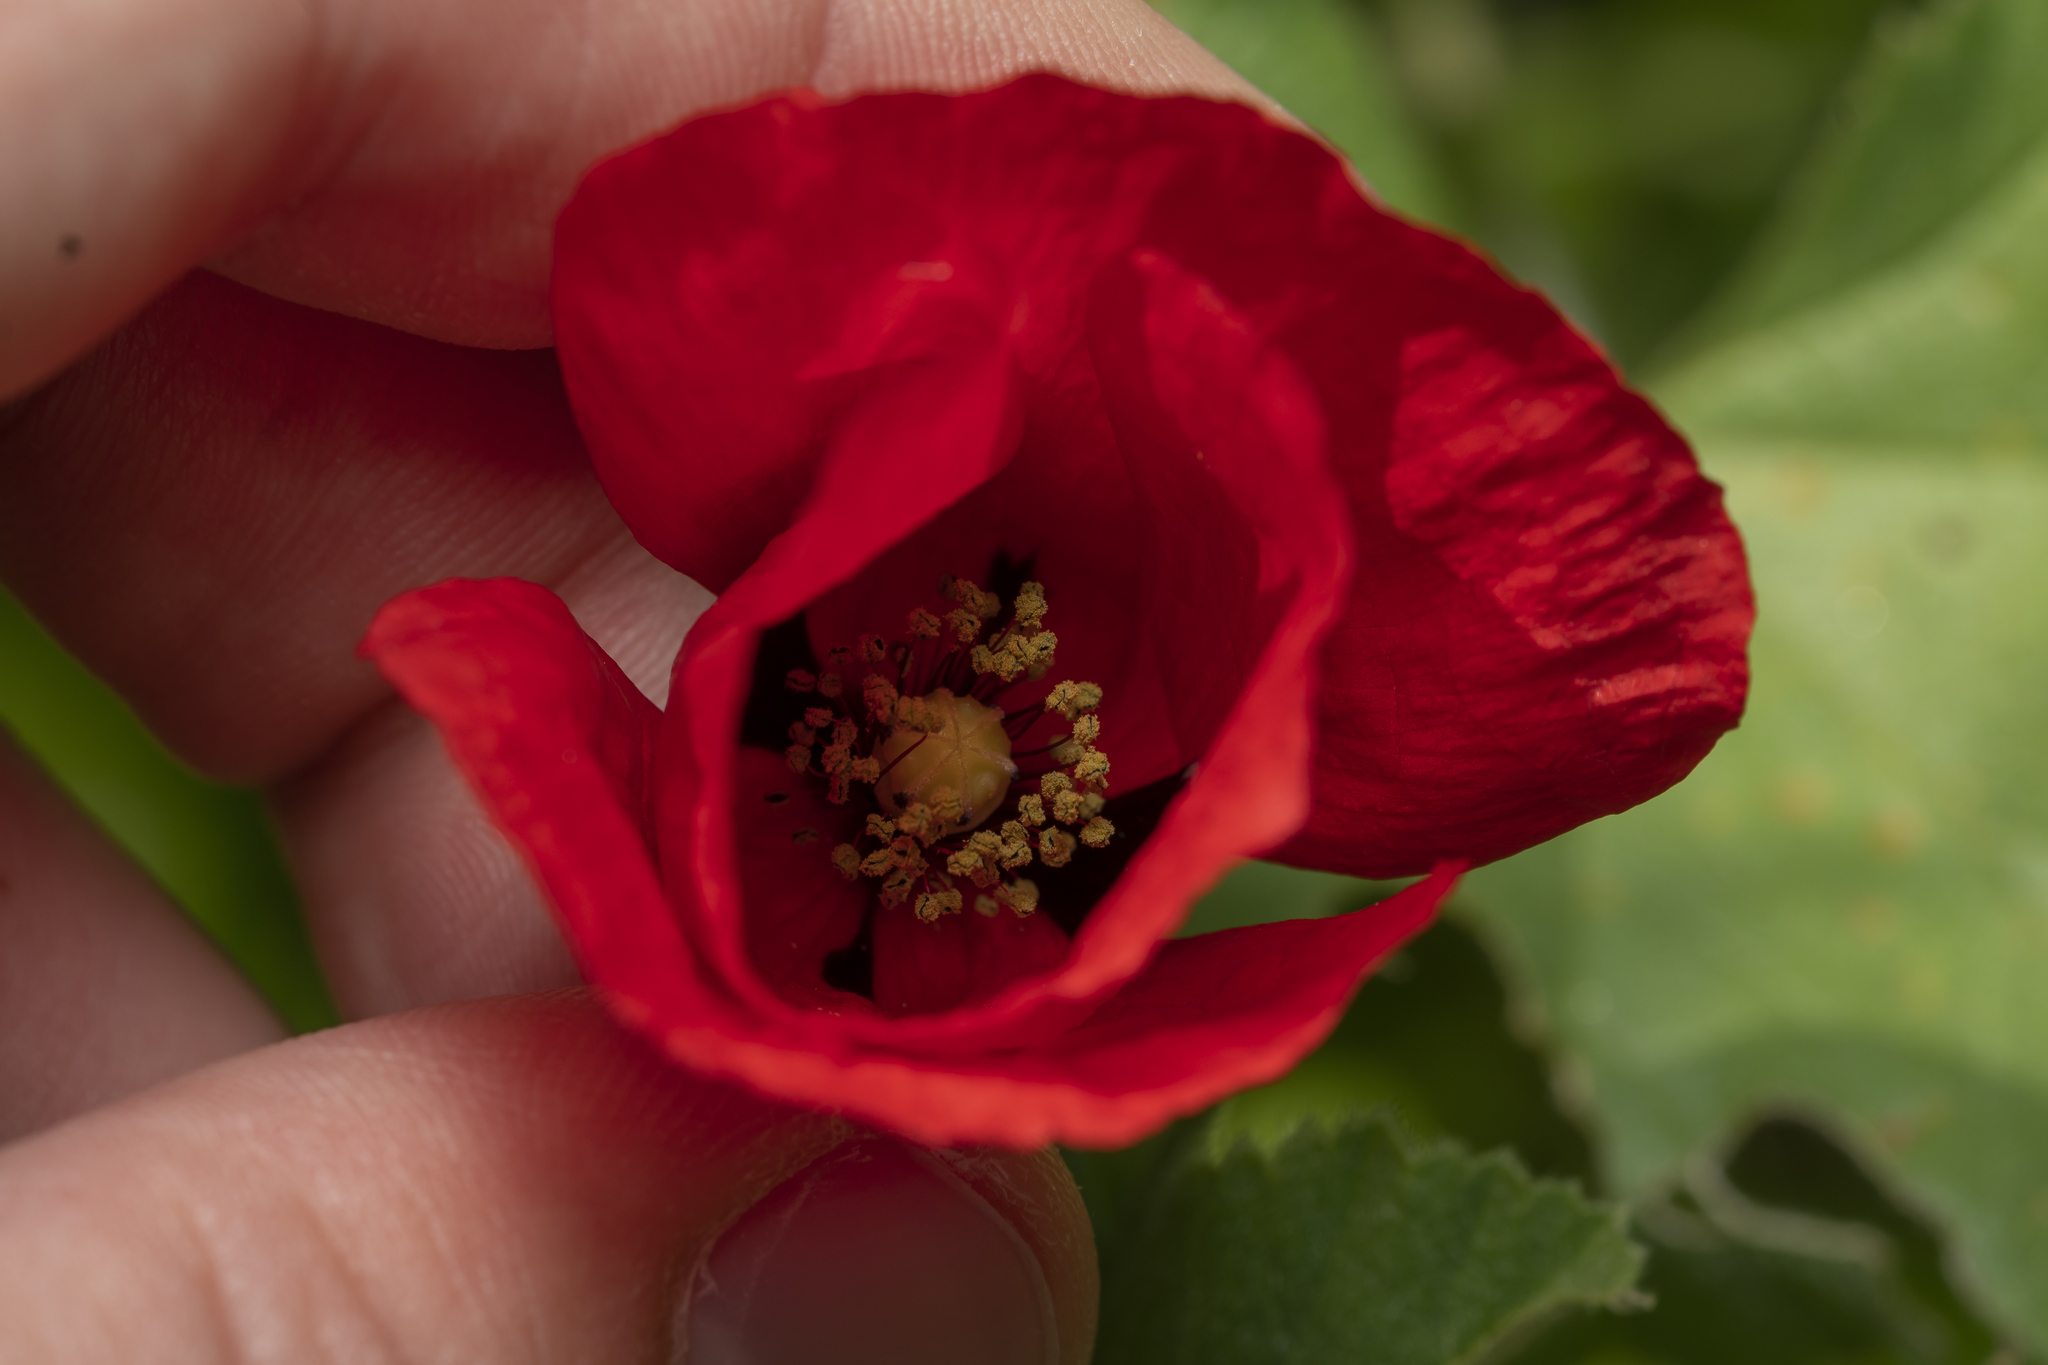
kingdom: Plantae
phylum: Tracheophyta
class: Magnoliopsida
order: Ranunculales
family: Papaveraceae
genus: Papaver
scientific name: Papaver rhoeas
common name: Corn poppy
